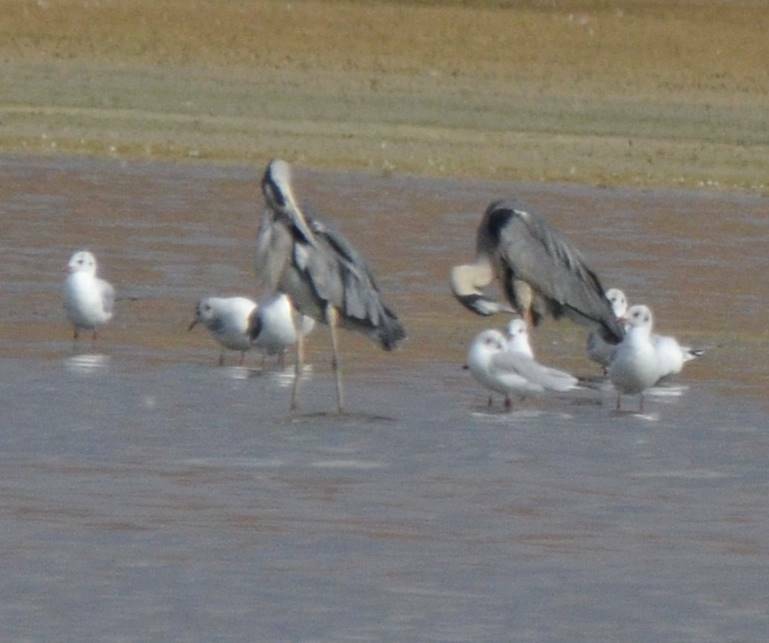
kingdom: Animalia
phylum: Chordata
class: Aves
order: Pelecaniformes
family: Ardeidae
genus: Ardea
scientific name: Ardea cinerea
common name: Grey heron
